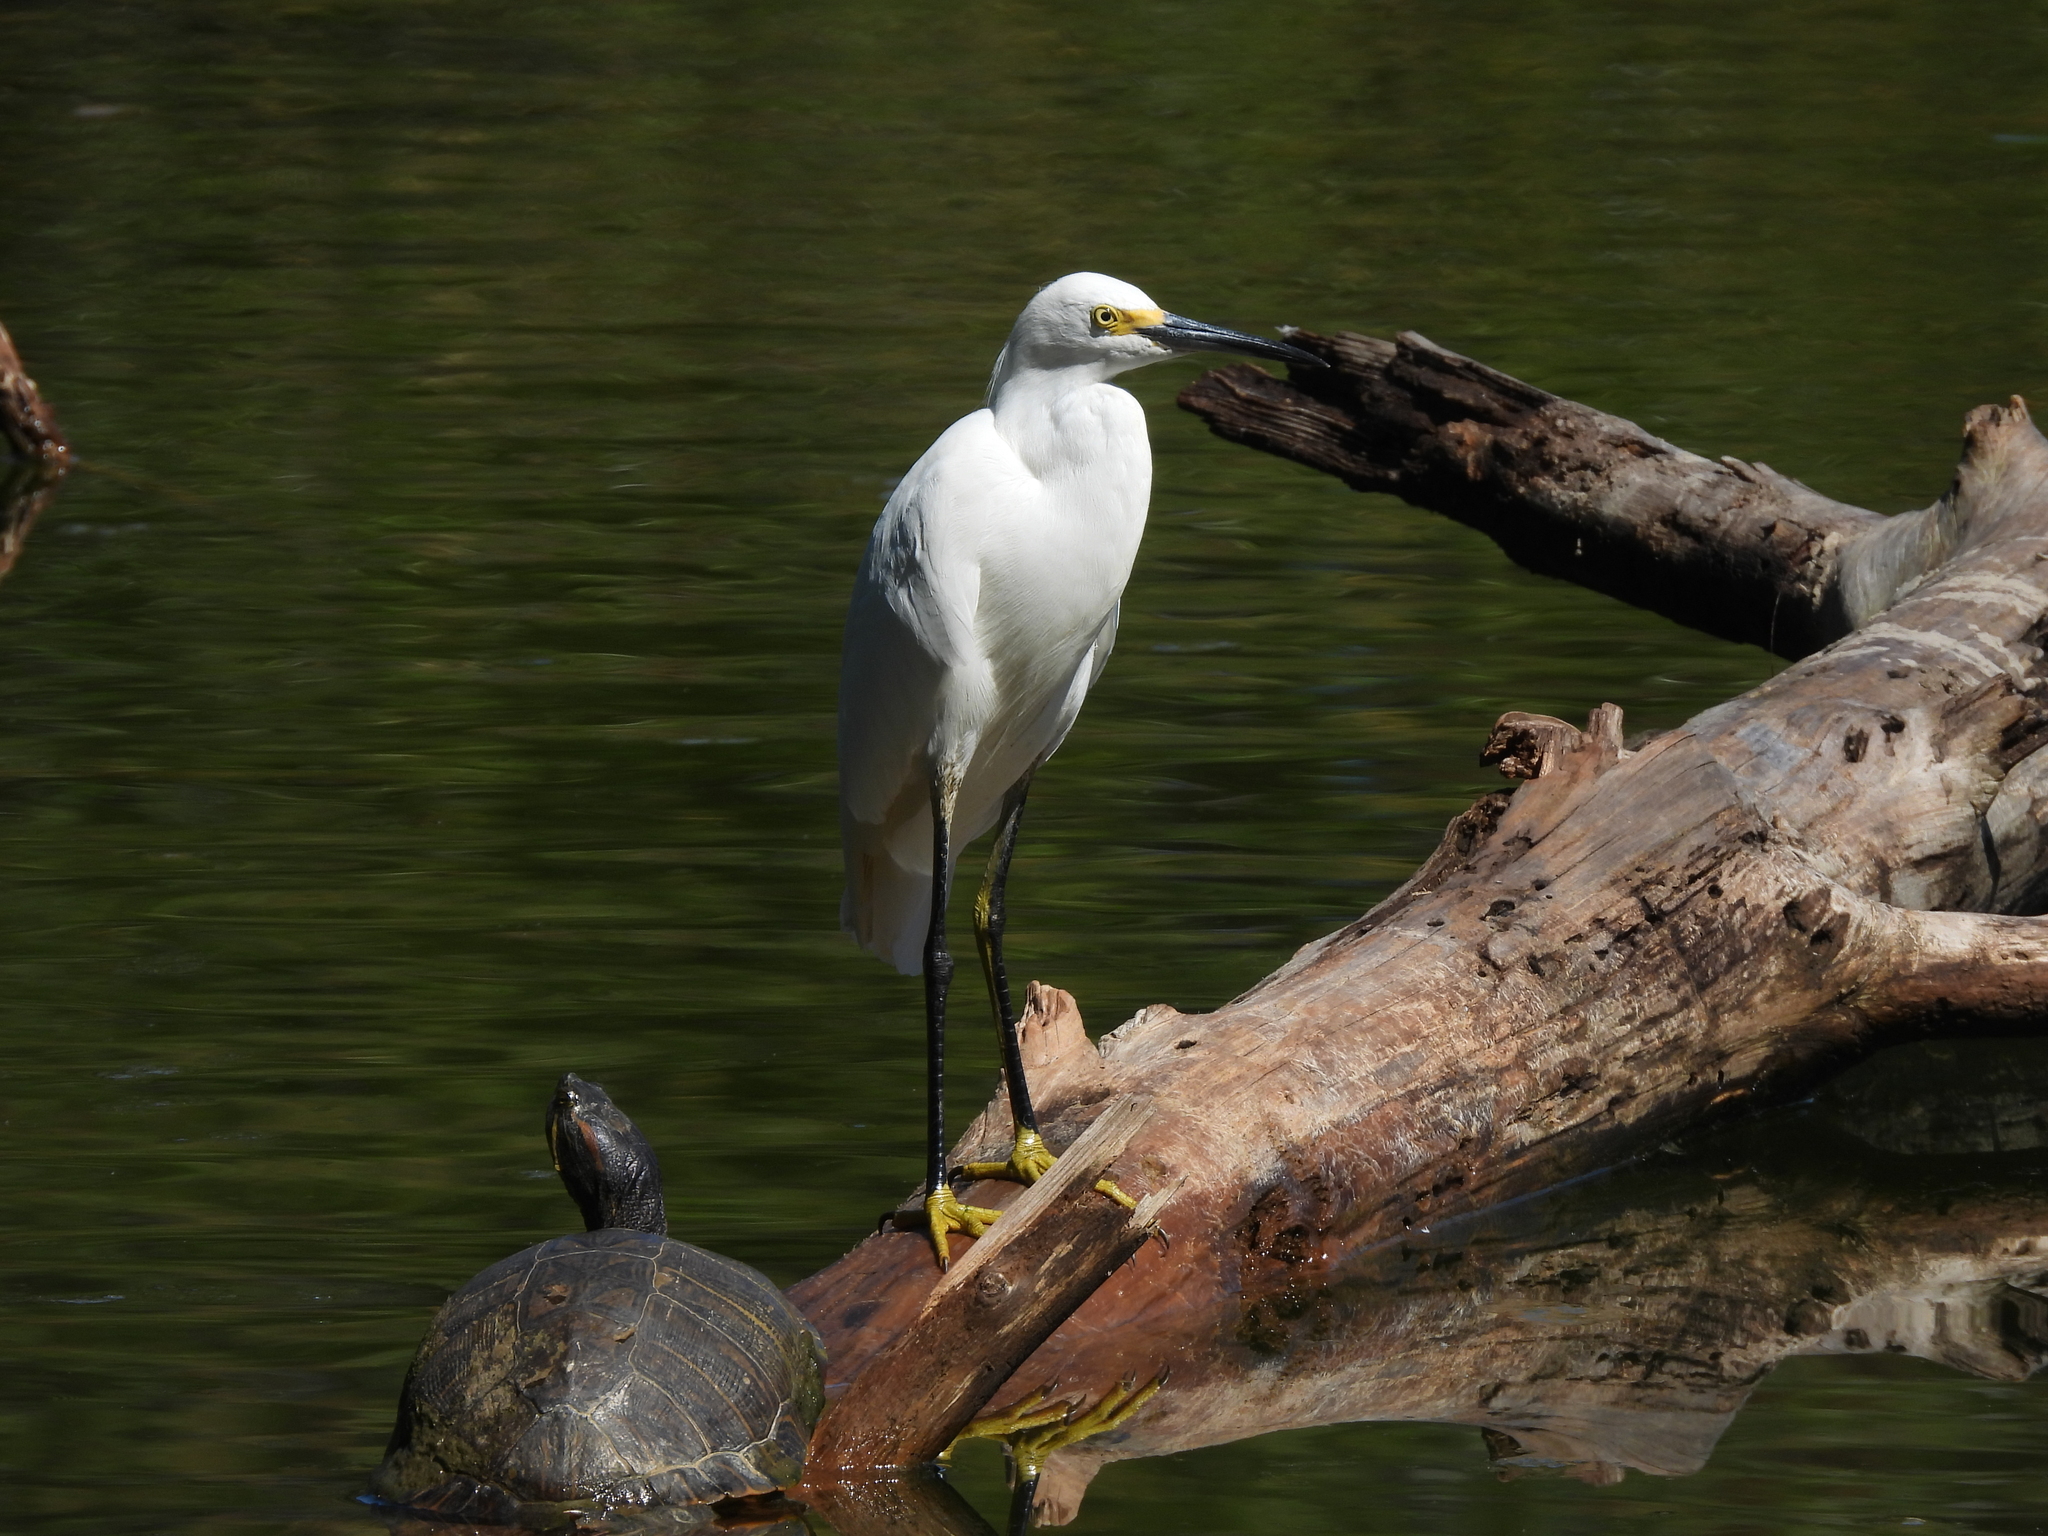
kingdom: Animalia
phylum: Chordata
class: Aves
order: Pelecaniformes
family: Ardeidae
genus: Egretta
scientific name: Egretta thula
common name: Snowy egret
